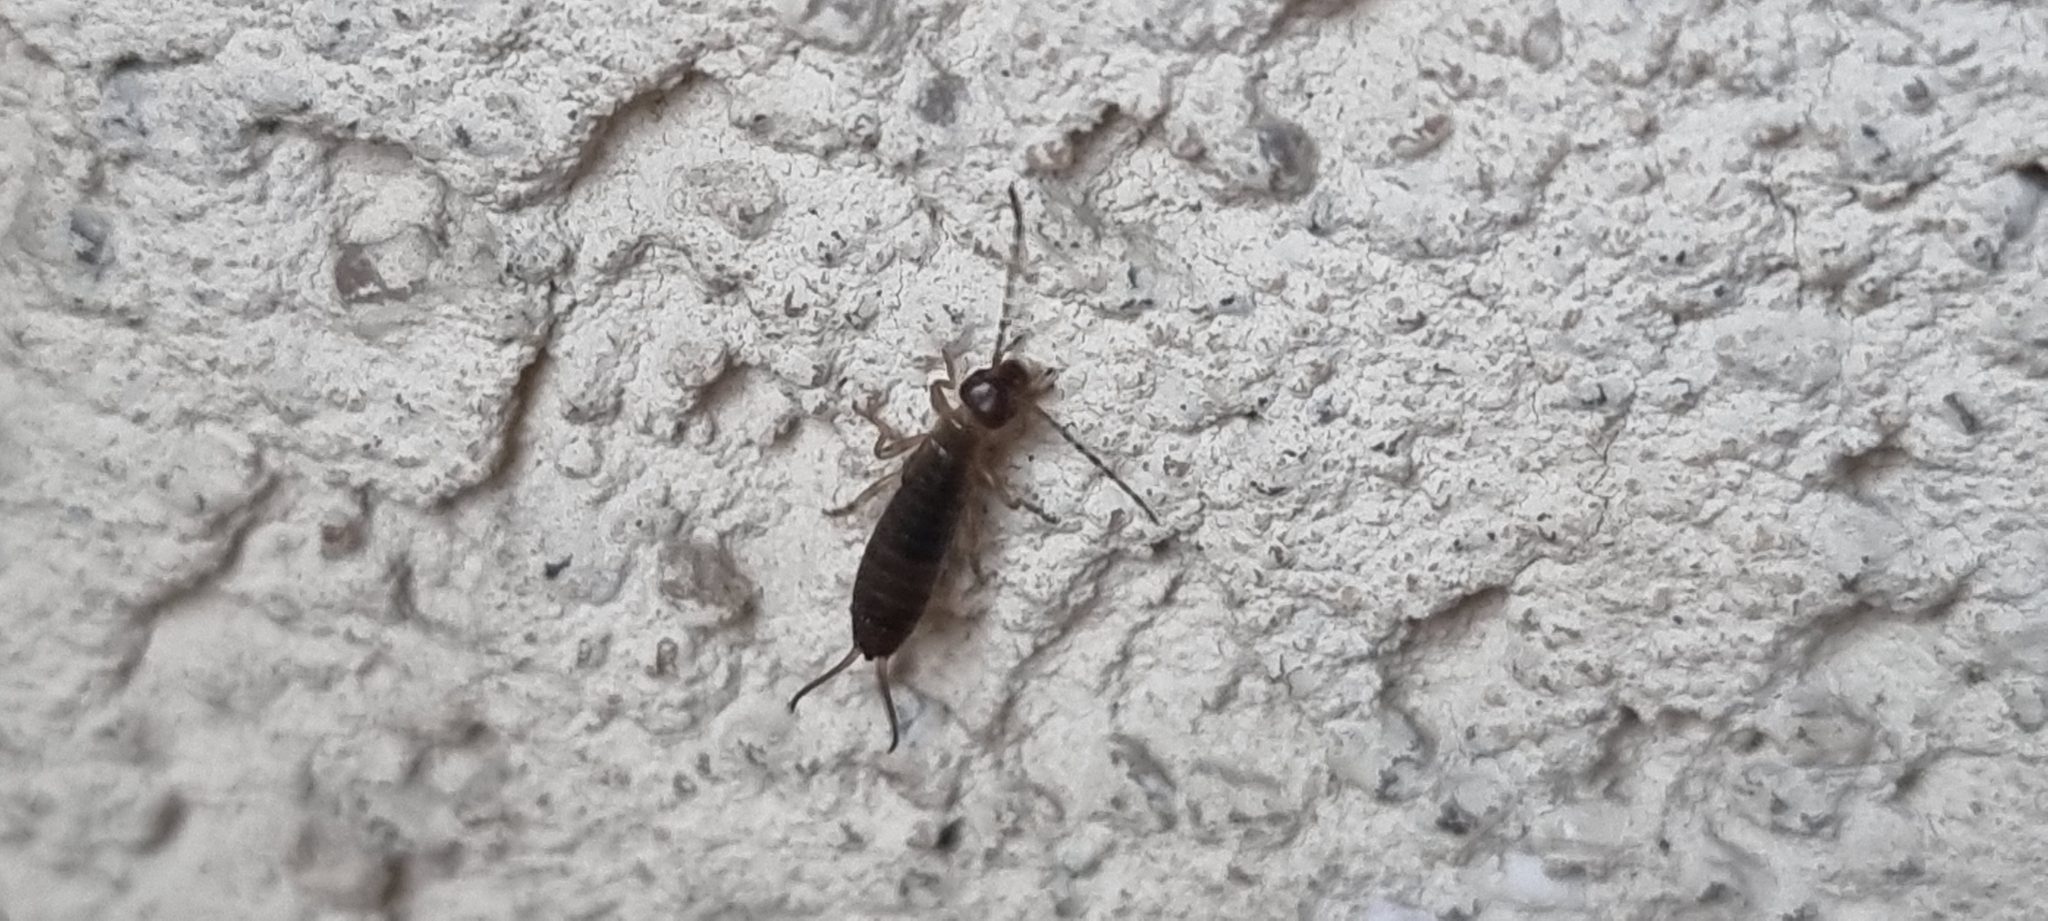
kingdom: Animalia
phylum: Arthropoda
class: Insecta
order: Dermaptera
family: Forficulidae
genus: Forficula
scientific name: Forficula
